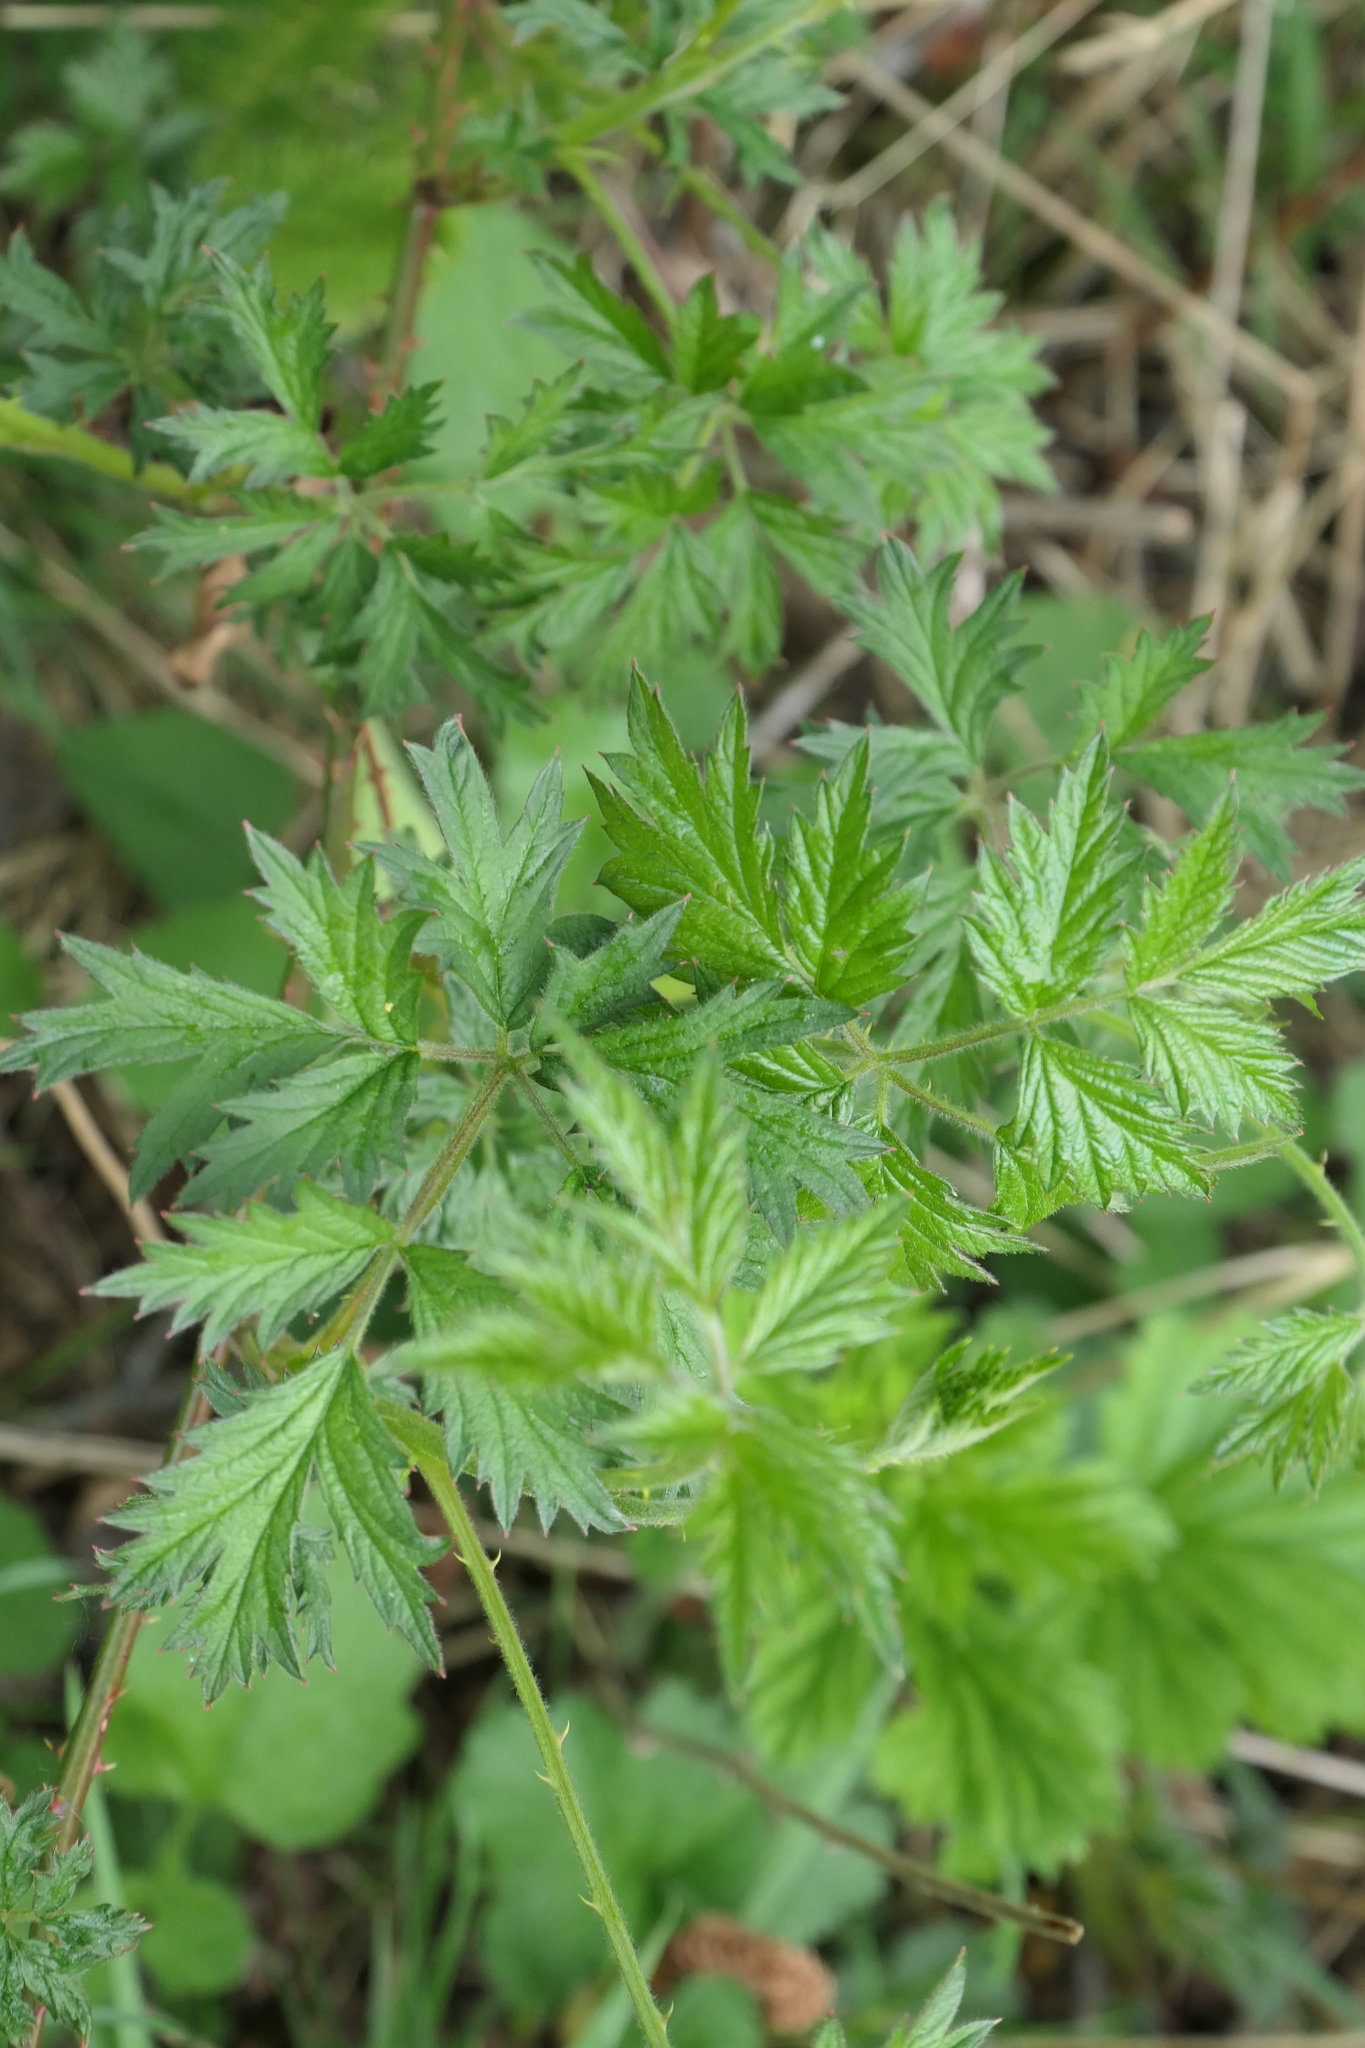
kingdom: Plantae
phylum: Tracheophyta
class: Magnoliopsida
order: Rosales
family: Rosaceae
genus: Rubus
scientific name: Rubus laciniatus
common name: Evergreen blackberry
